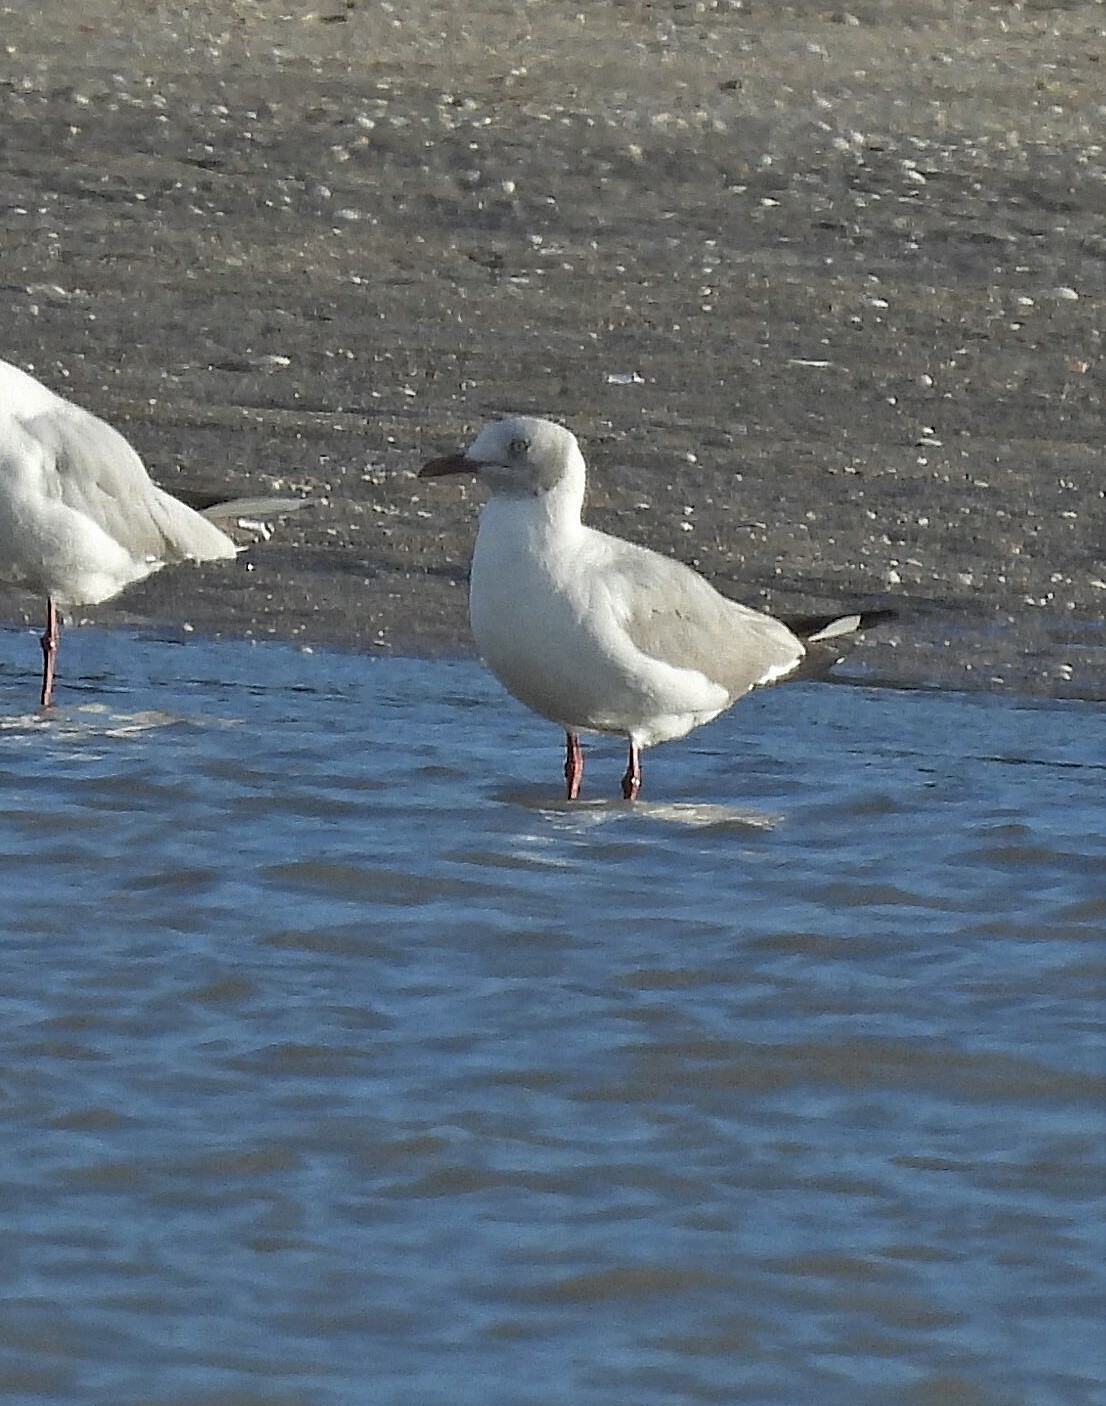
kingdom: Animalia
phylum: Chordata
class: Aves
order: Charadriiformes
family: Laridae
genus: Chroicocephalus
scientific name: Chroicocephalus cirrocephalus
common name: Grey-headed gull
